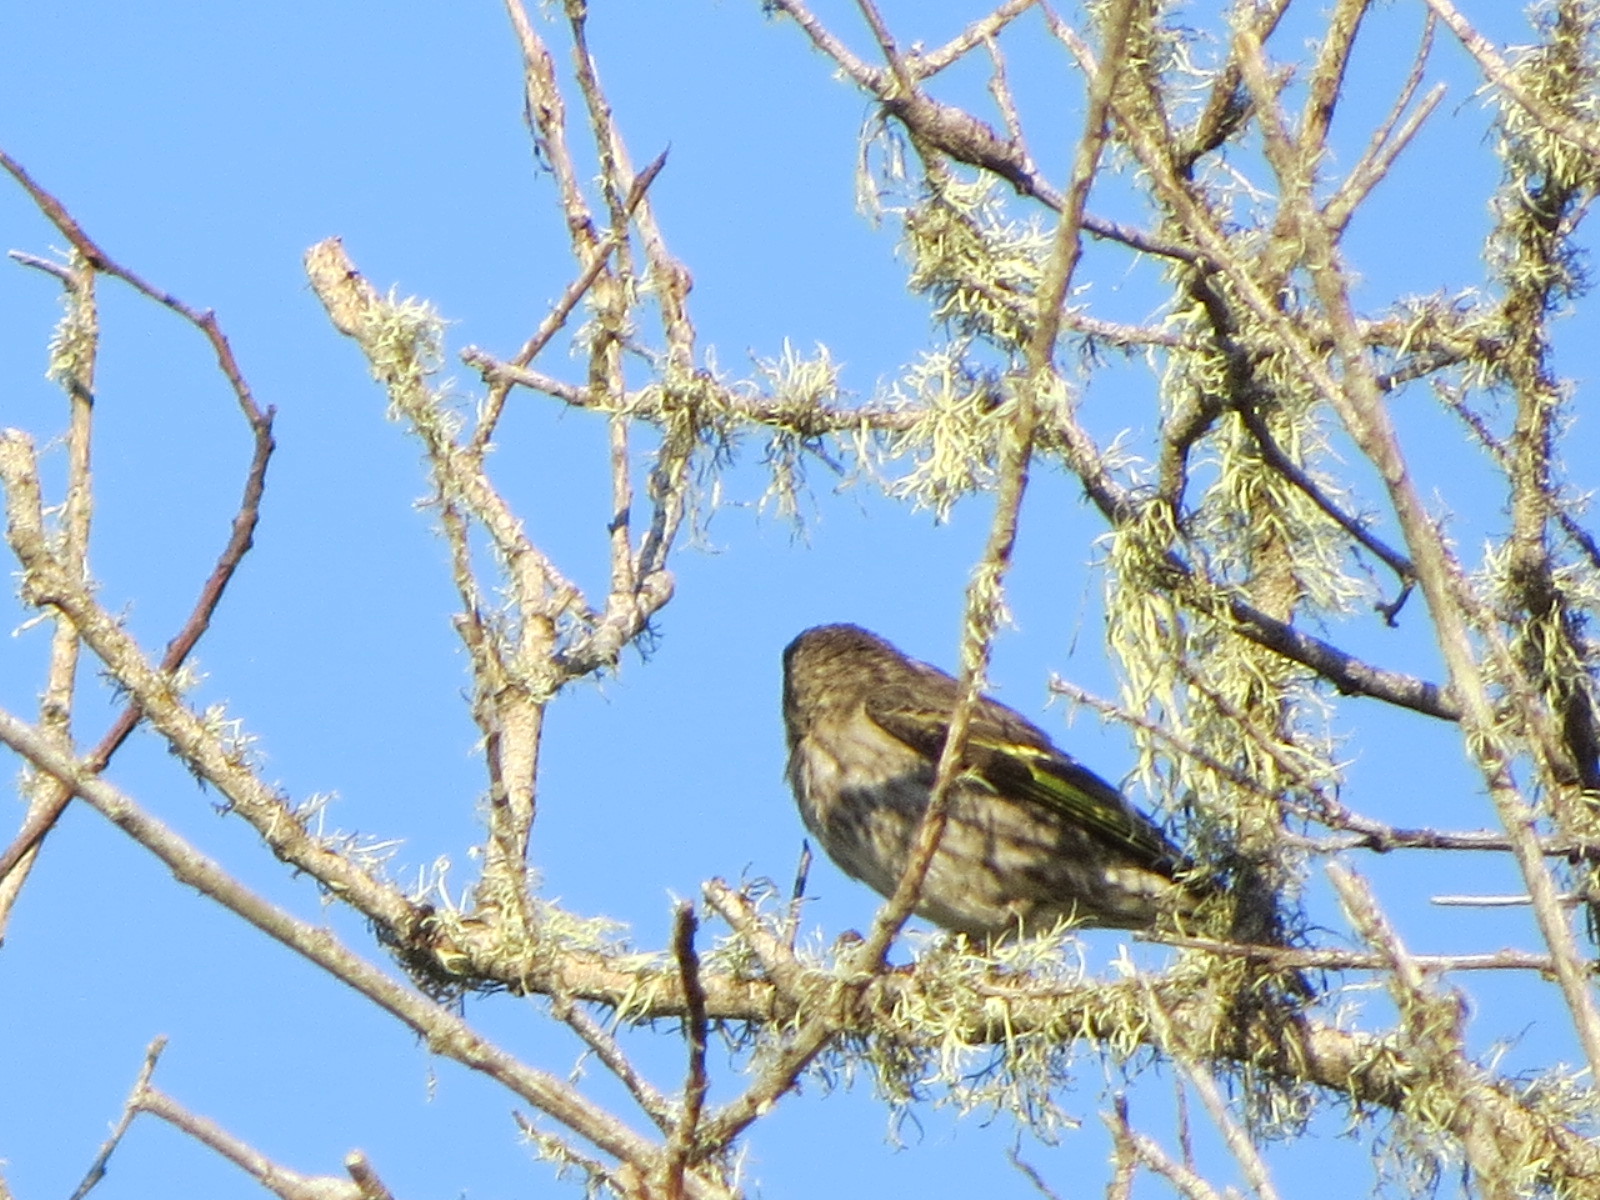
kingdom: Animalia
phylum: Chordata
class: Aves
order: Passeriformes
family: Fringillidae
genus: Spinus
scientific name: Spinus pinus
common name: Pine siskin
